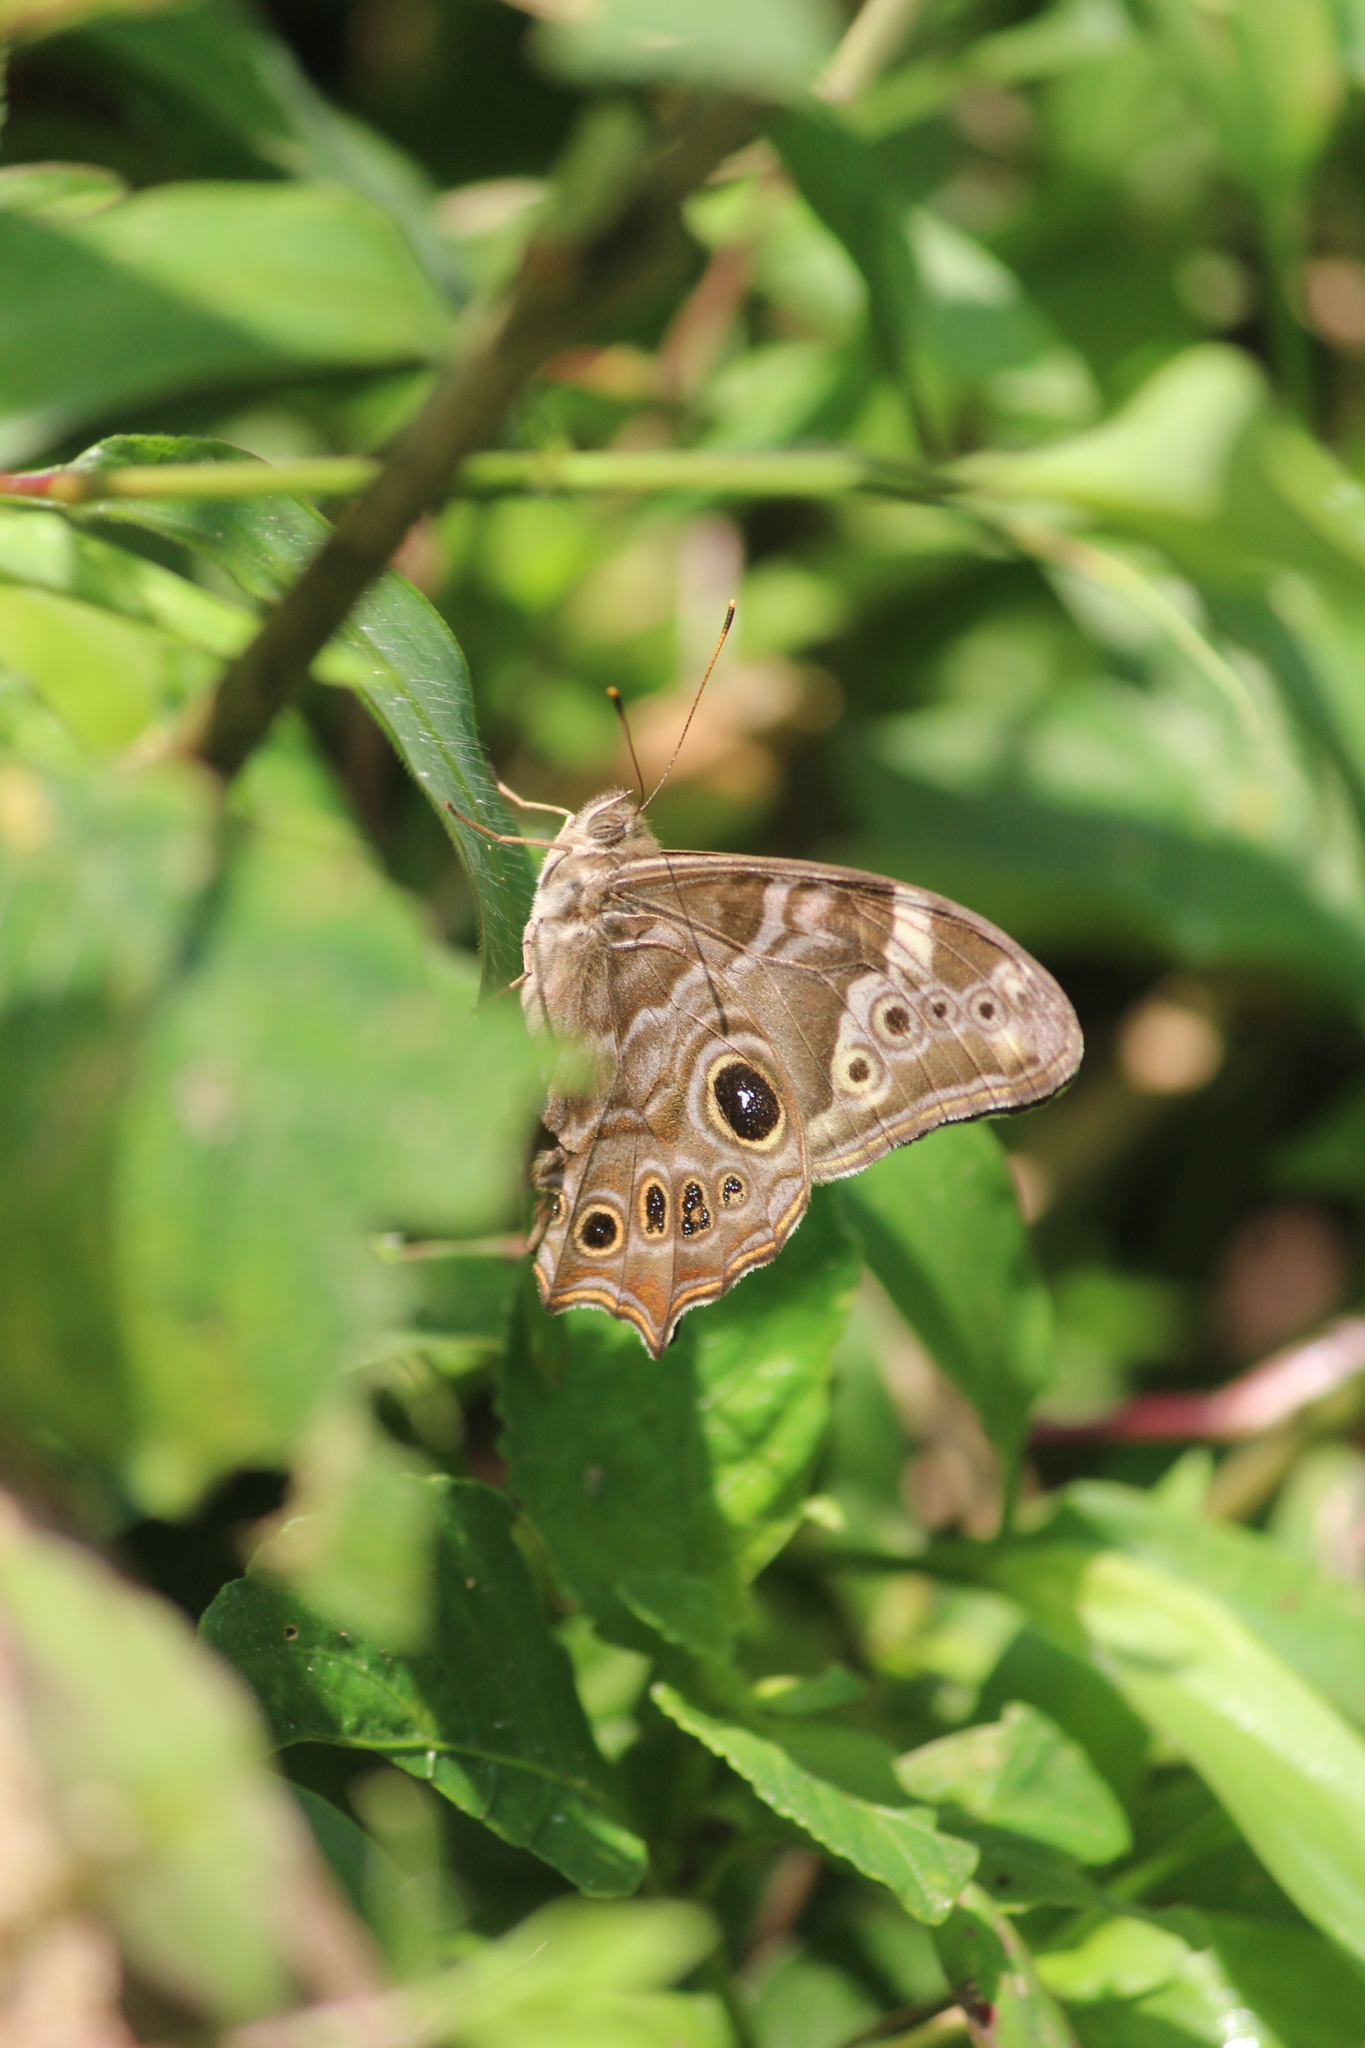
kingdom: Animalia
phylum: Arthropoda
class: Insecta
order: Lepidoptera
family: Nymphalidae
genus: Lethe
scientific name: Lethe drypetis
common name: Tamil treebrown
